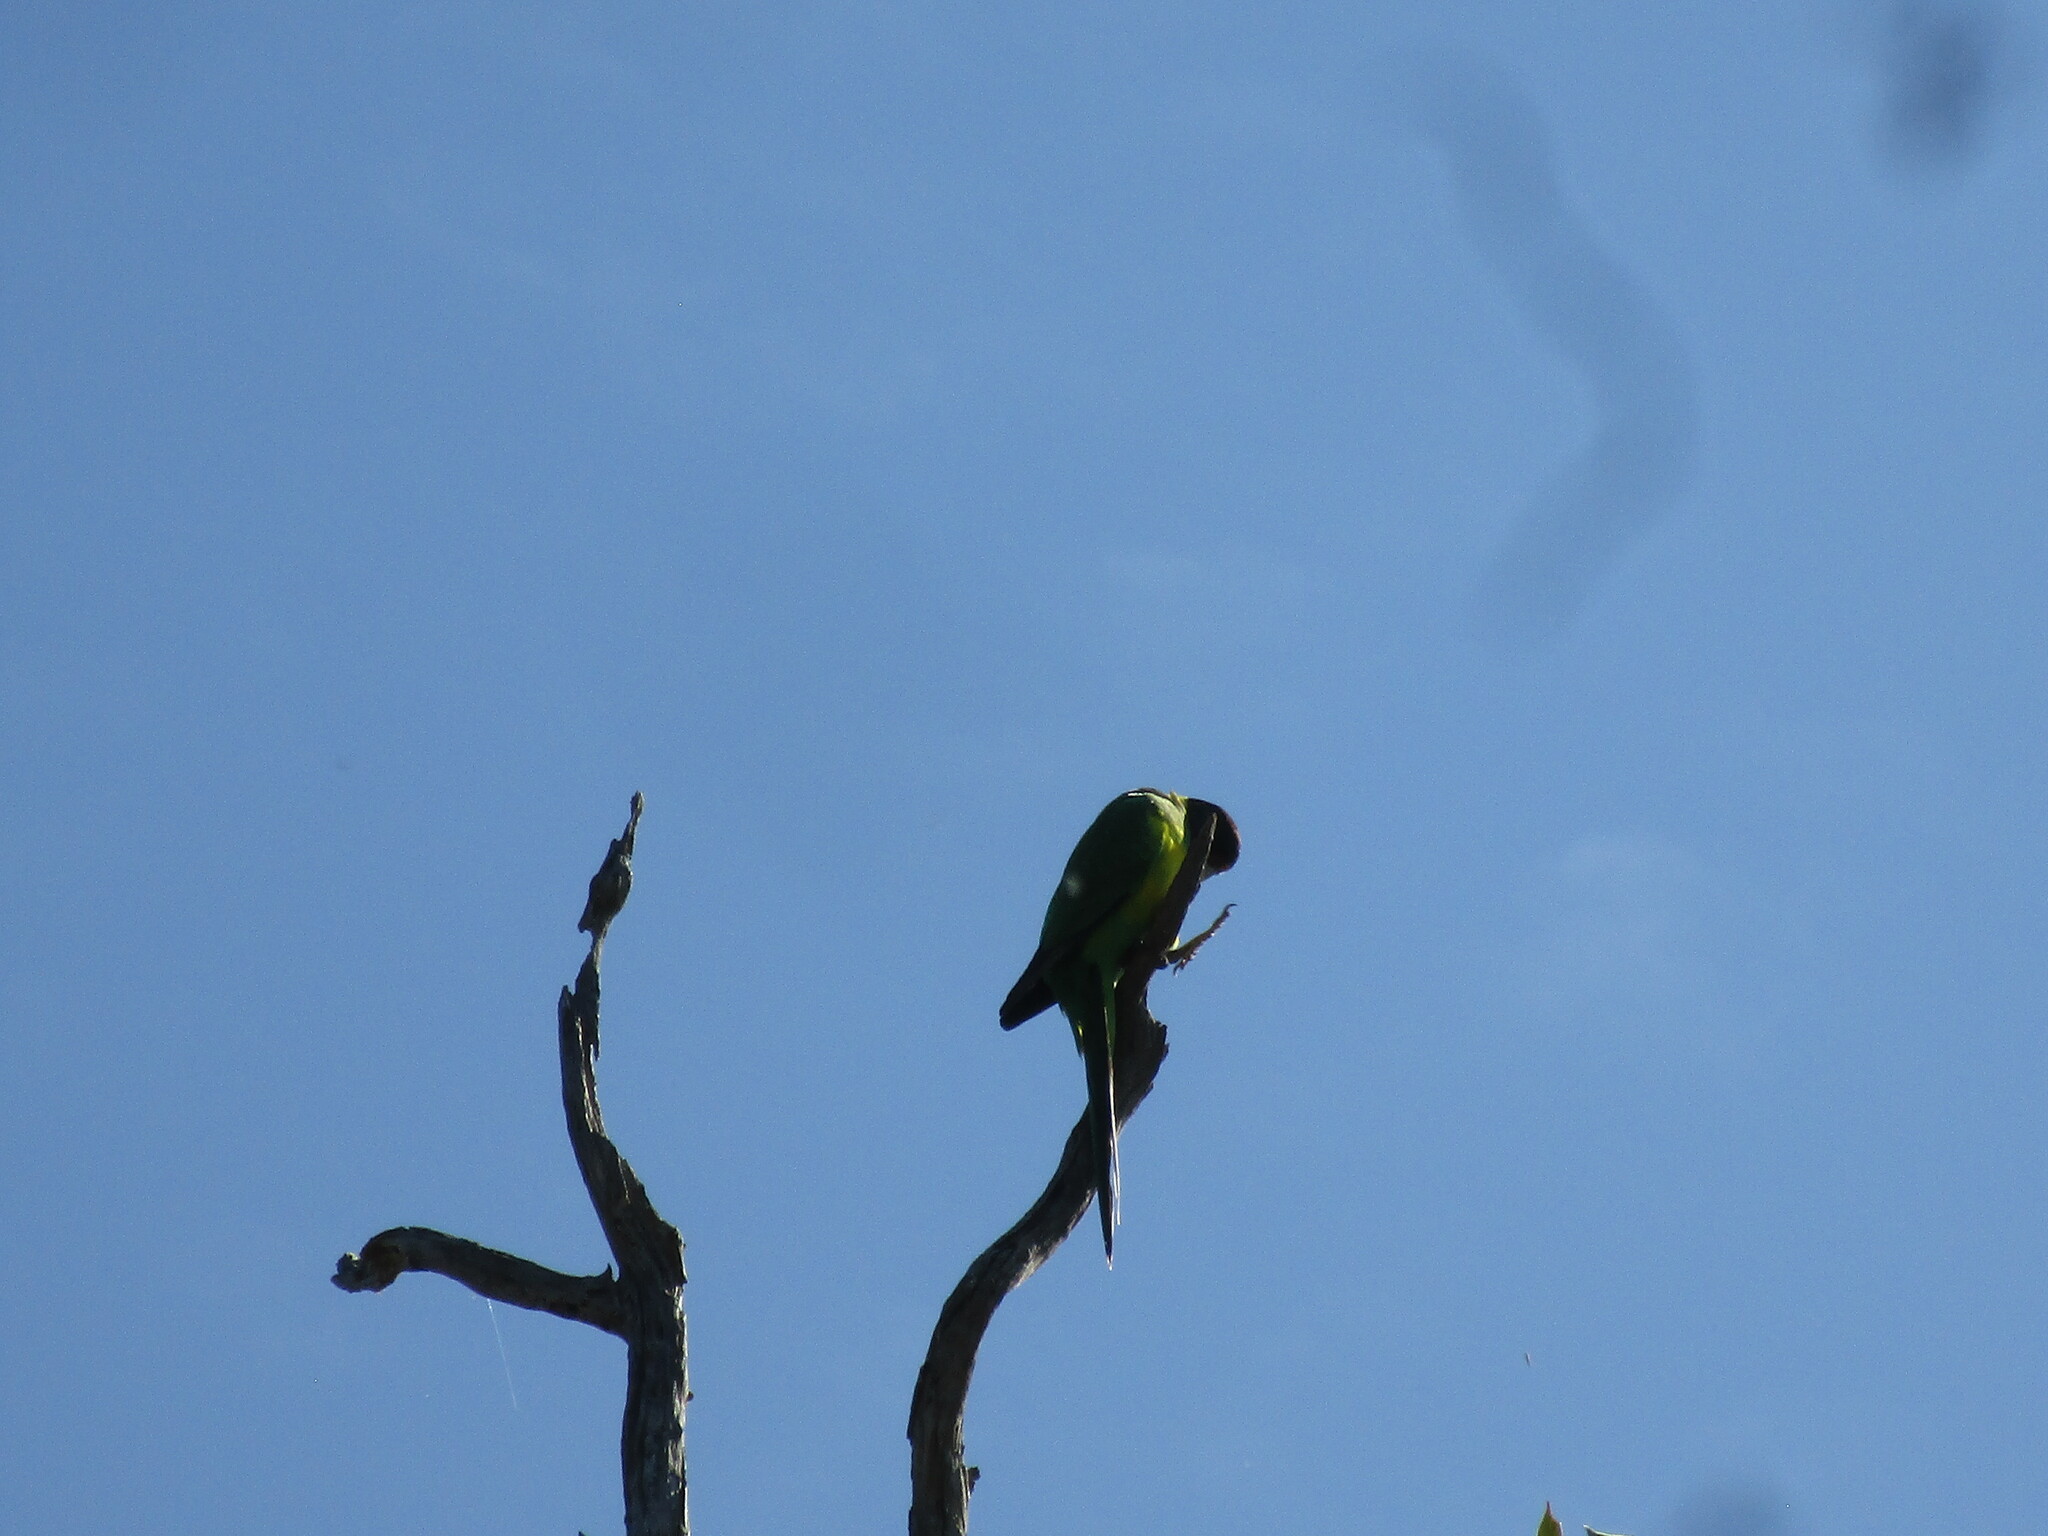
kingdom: Animalia
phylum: Chordata
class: Aves
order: Psittaciformes
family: Psittacidae
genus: Barnardius
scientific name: Barnardius
